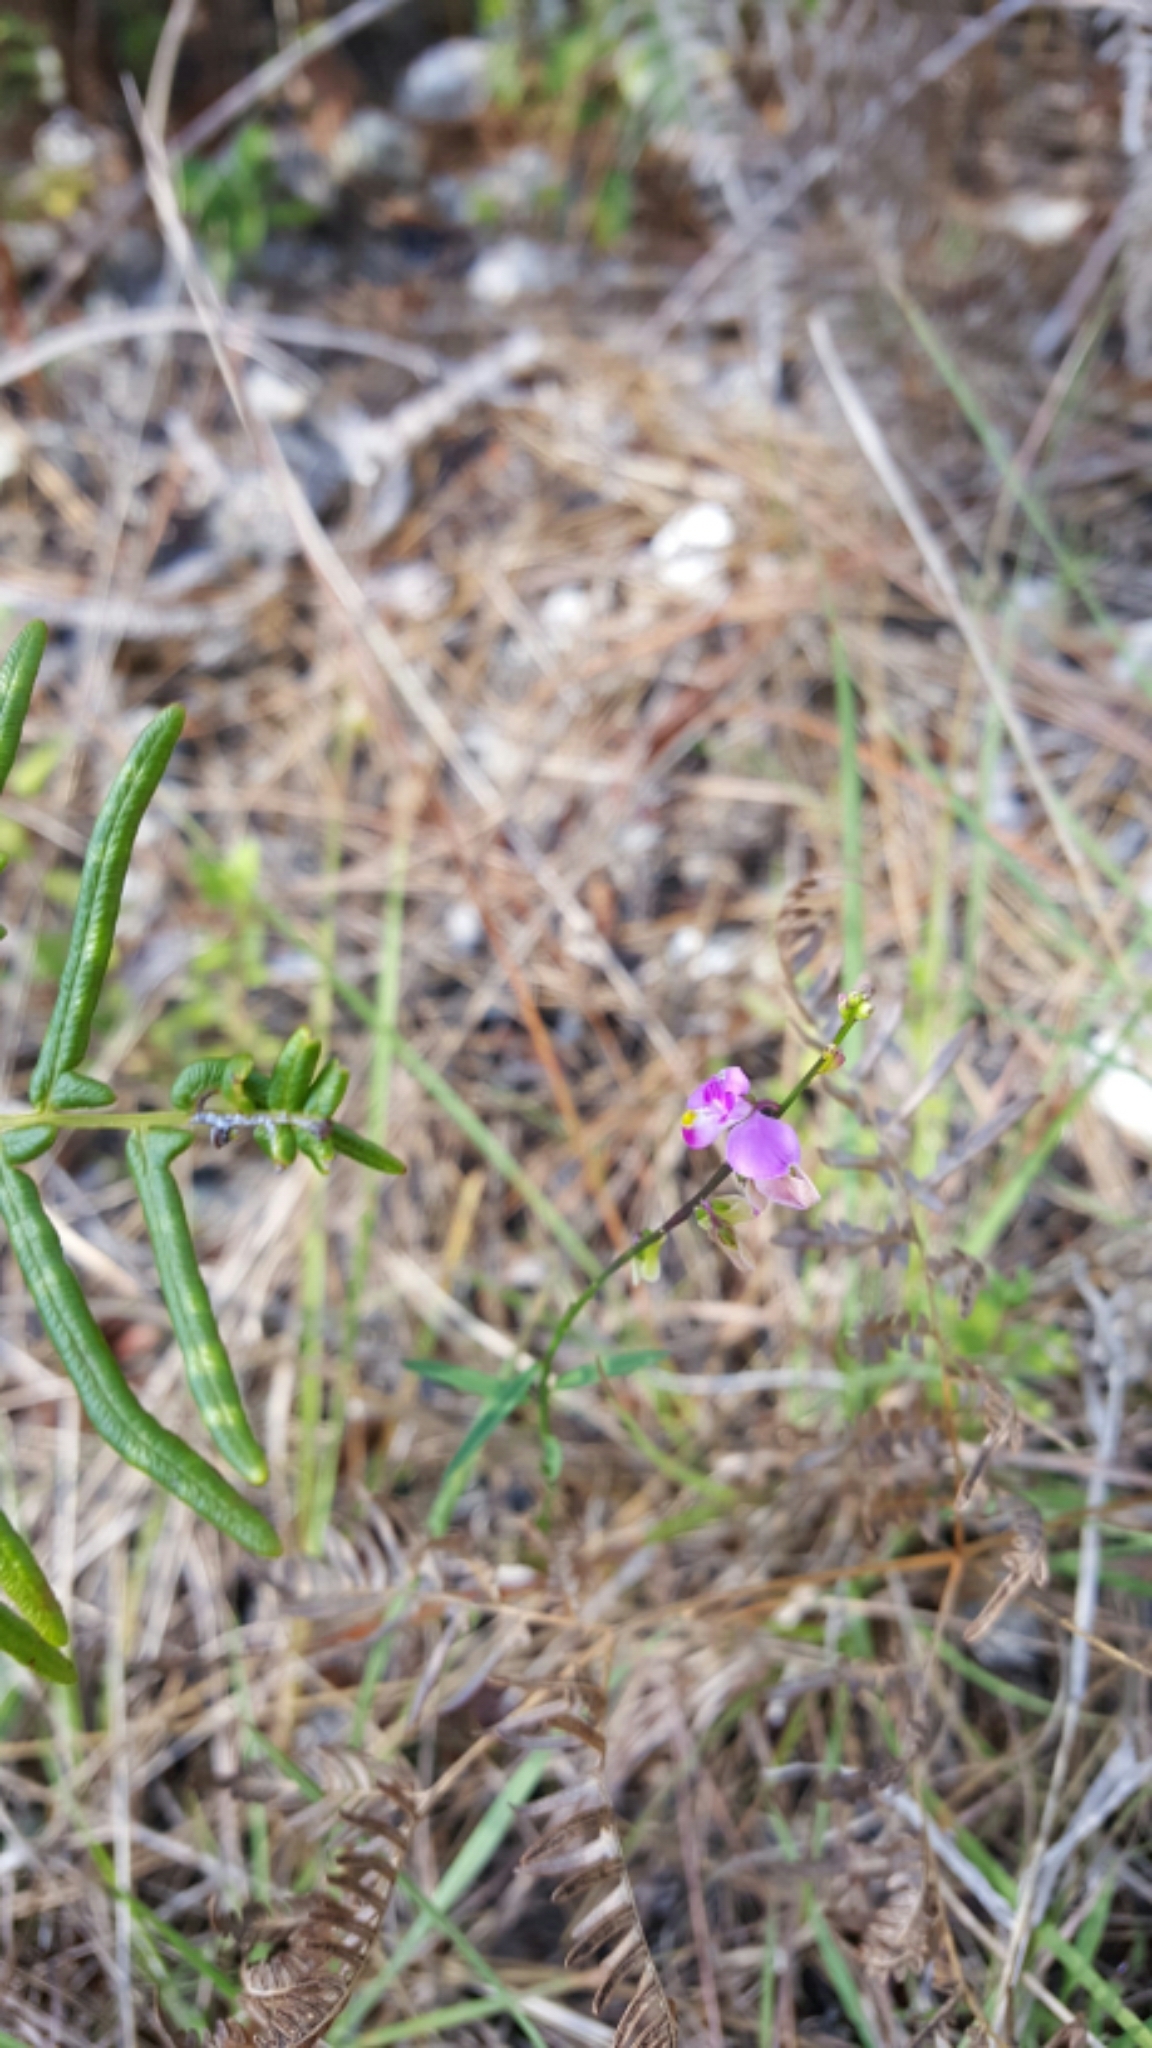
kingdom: Plantae
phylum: Tracheophyta
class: Magnoliopsida
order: Fabales
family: Polygalaceae
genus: Asemeia
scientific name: Asemeia grandiflora
